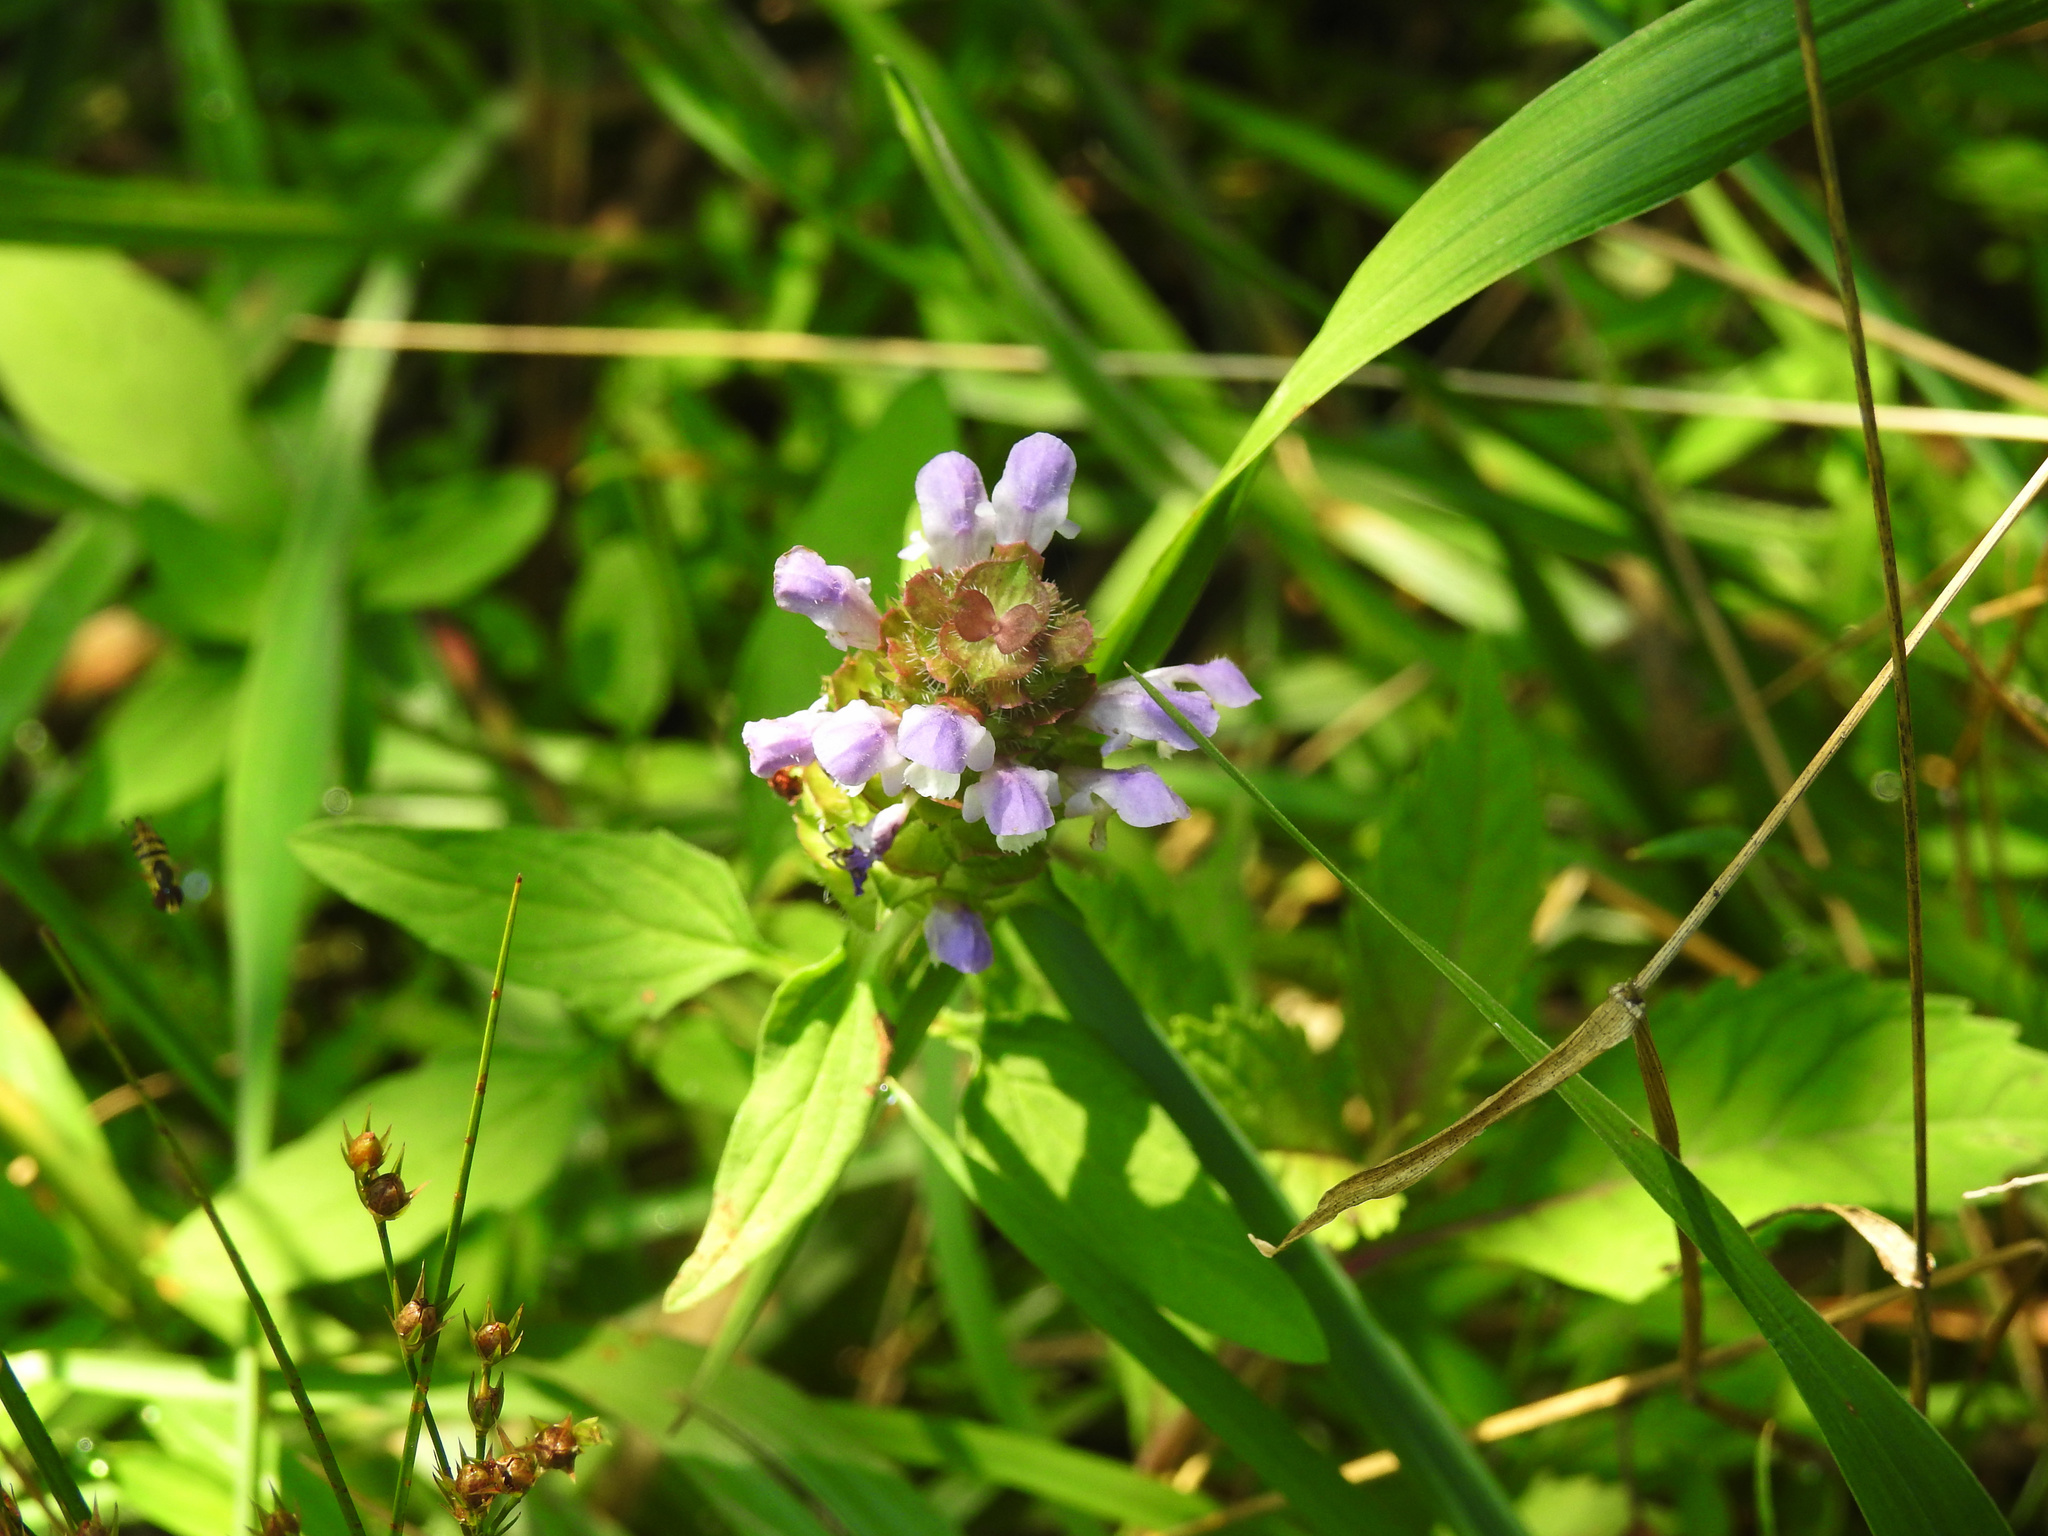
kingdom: Plantae
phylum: Tracheophyta
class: Magnoliopsida
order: Lamiales
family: Lamiaceae
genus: Prunella
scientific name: Prunella vulgaris
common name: Heal-all
